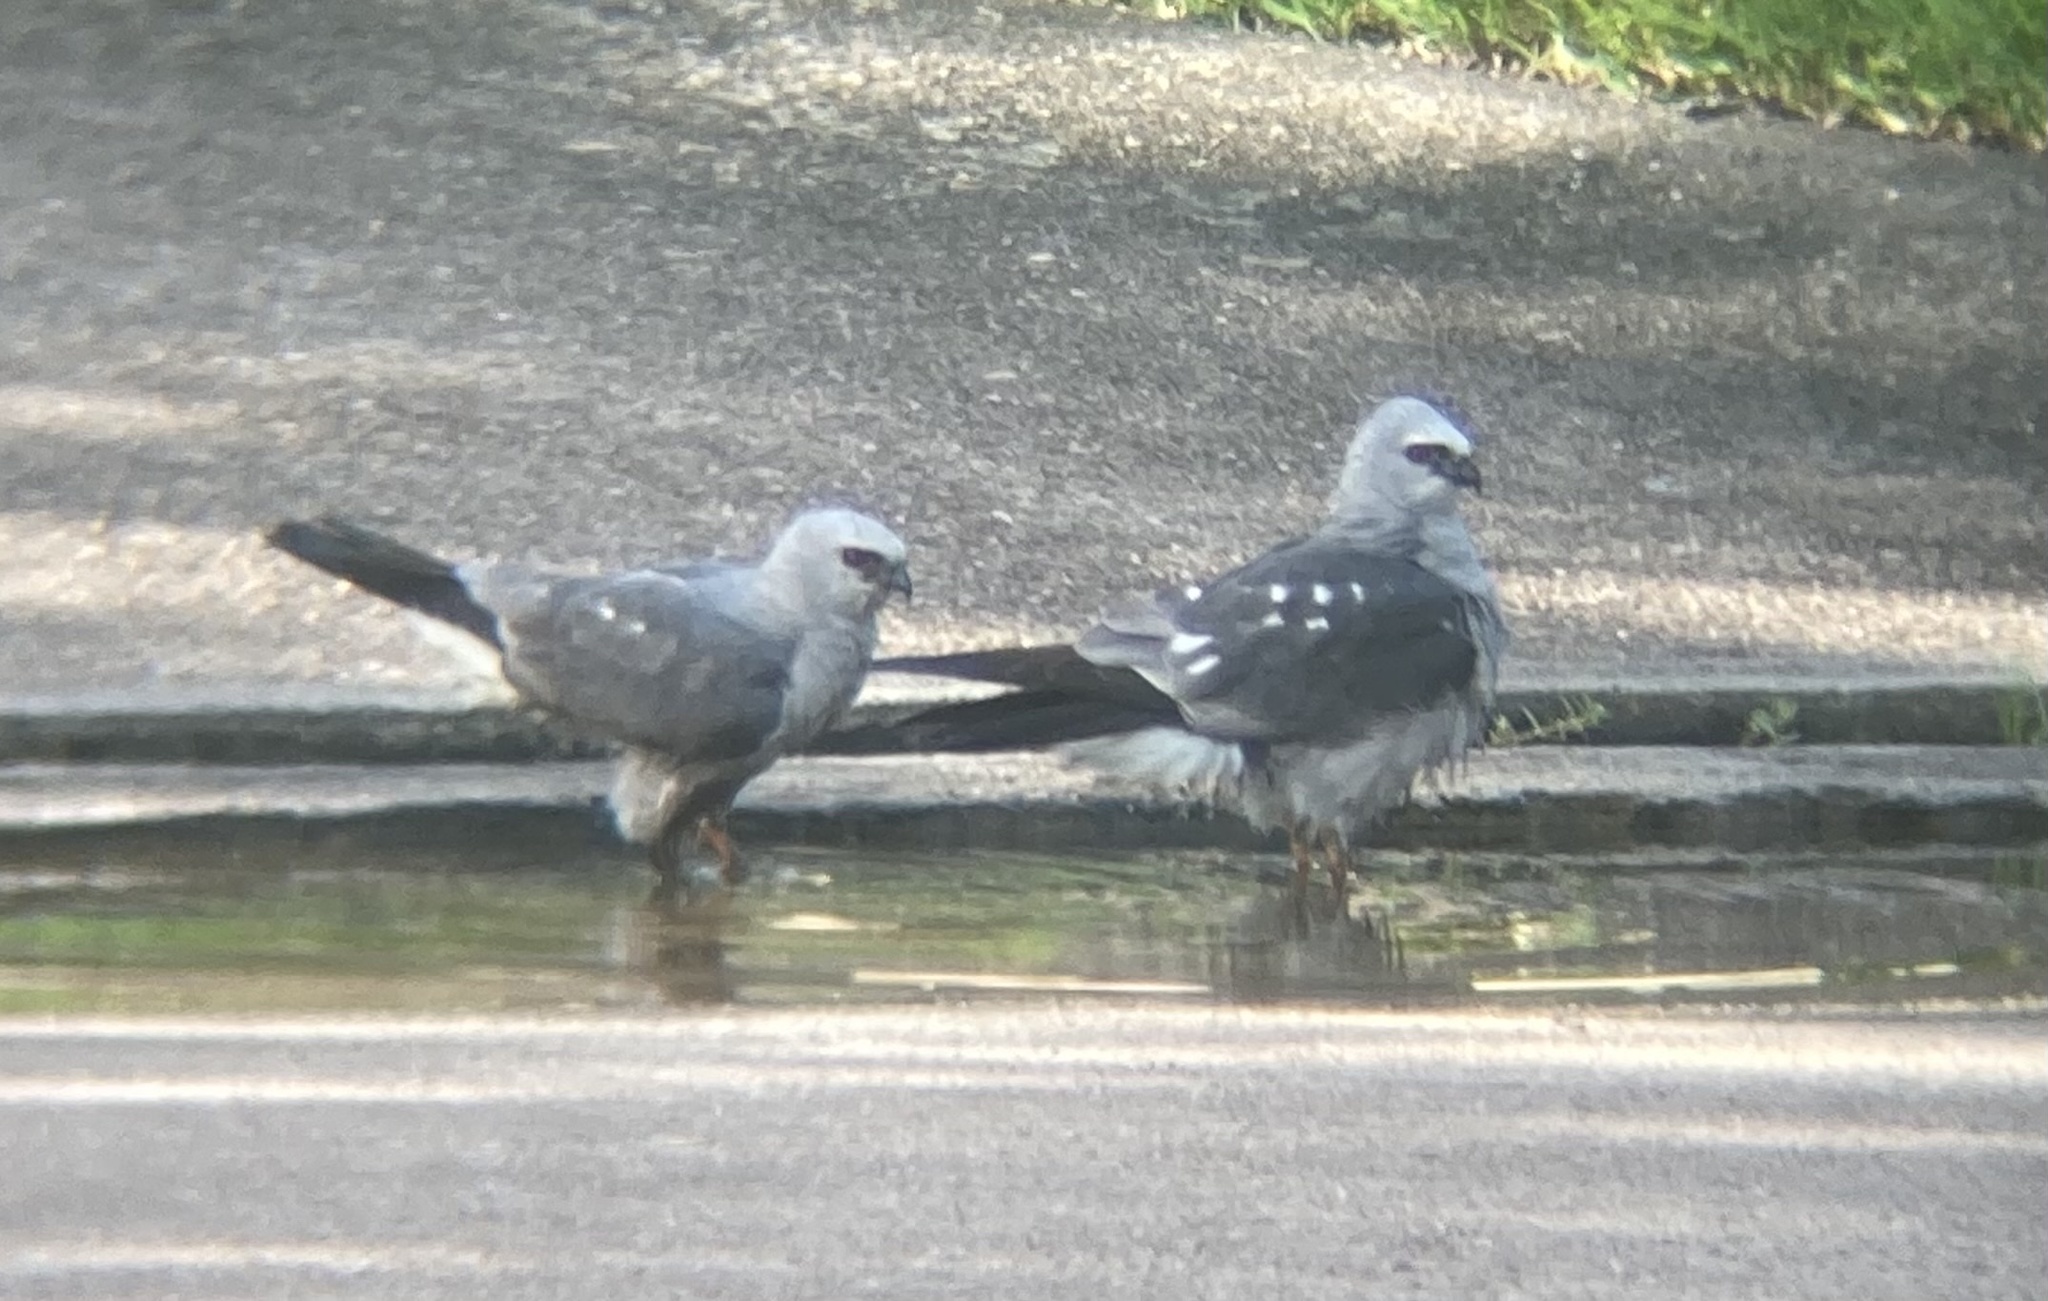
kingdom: Animalia
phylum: Chordata
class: Aves
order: Accipitriformes
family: Accipitridae
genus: Ictinia
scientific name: Ictinia mississippiensis
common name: Mississippi kite
